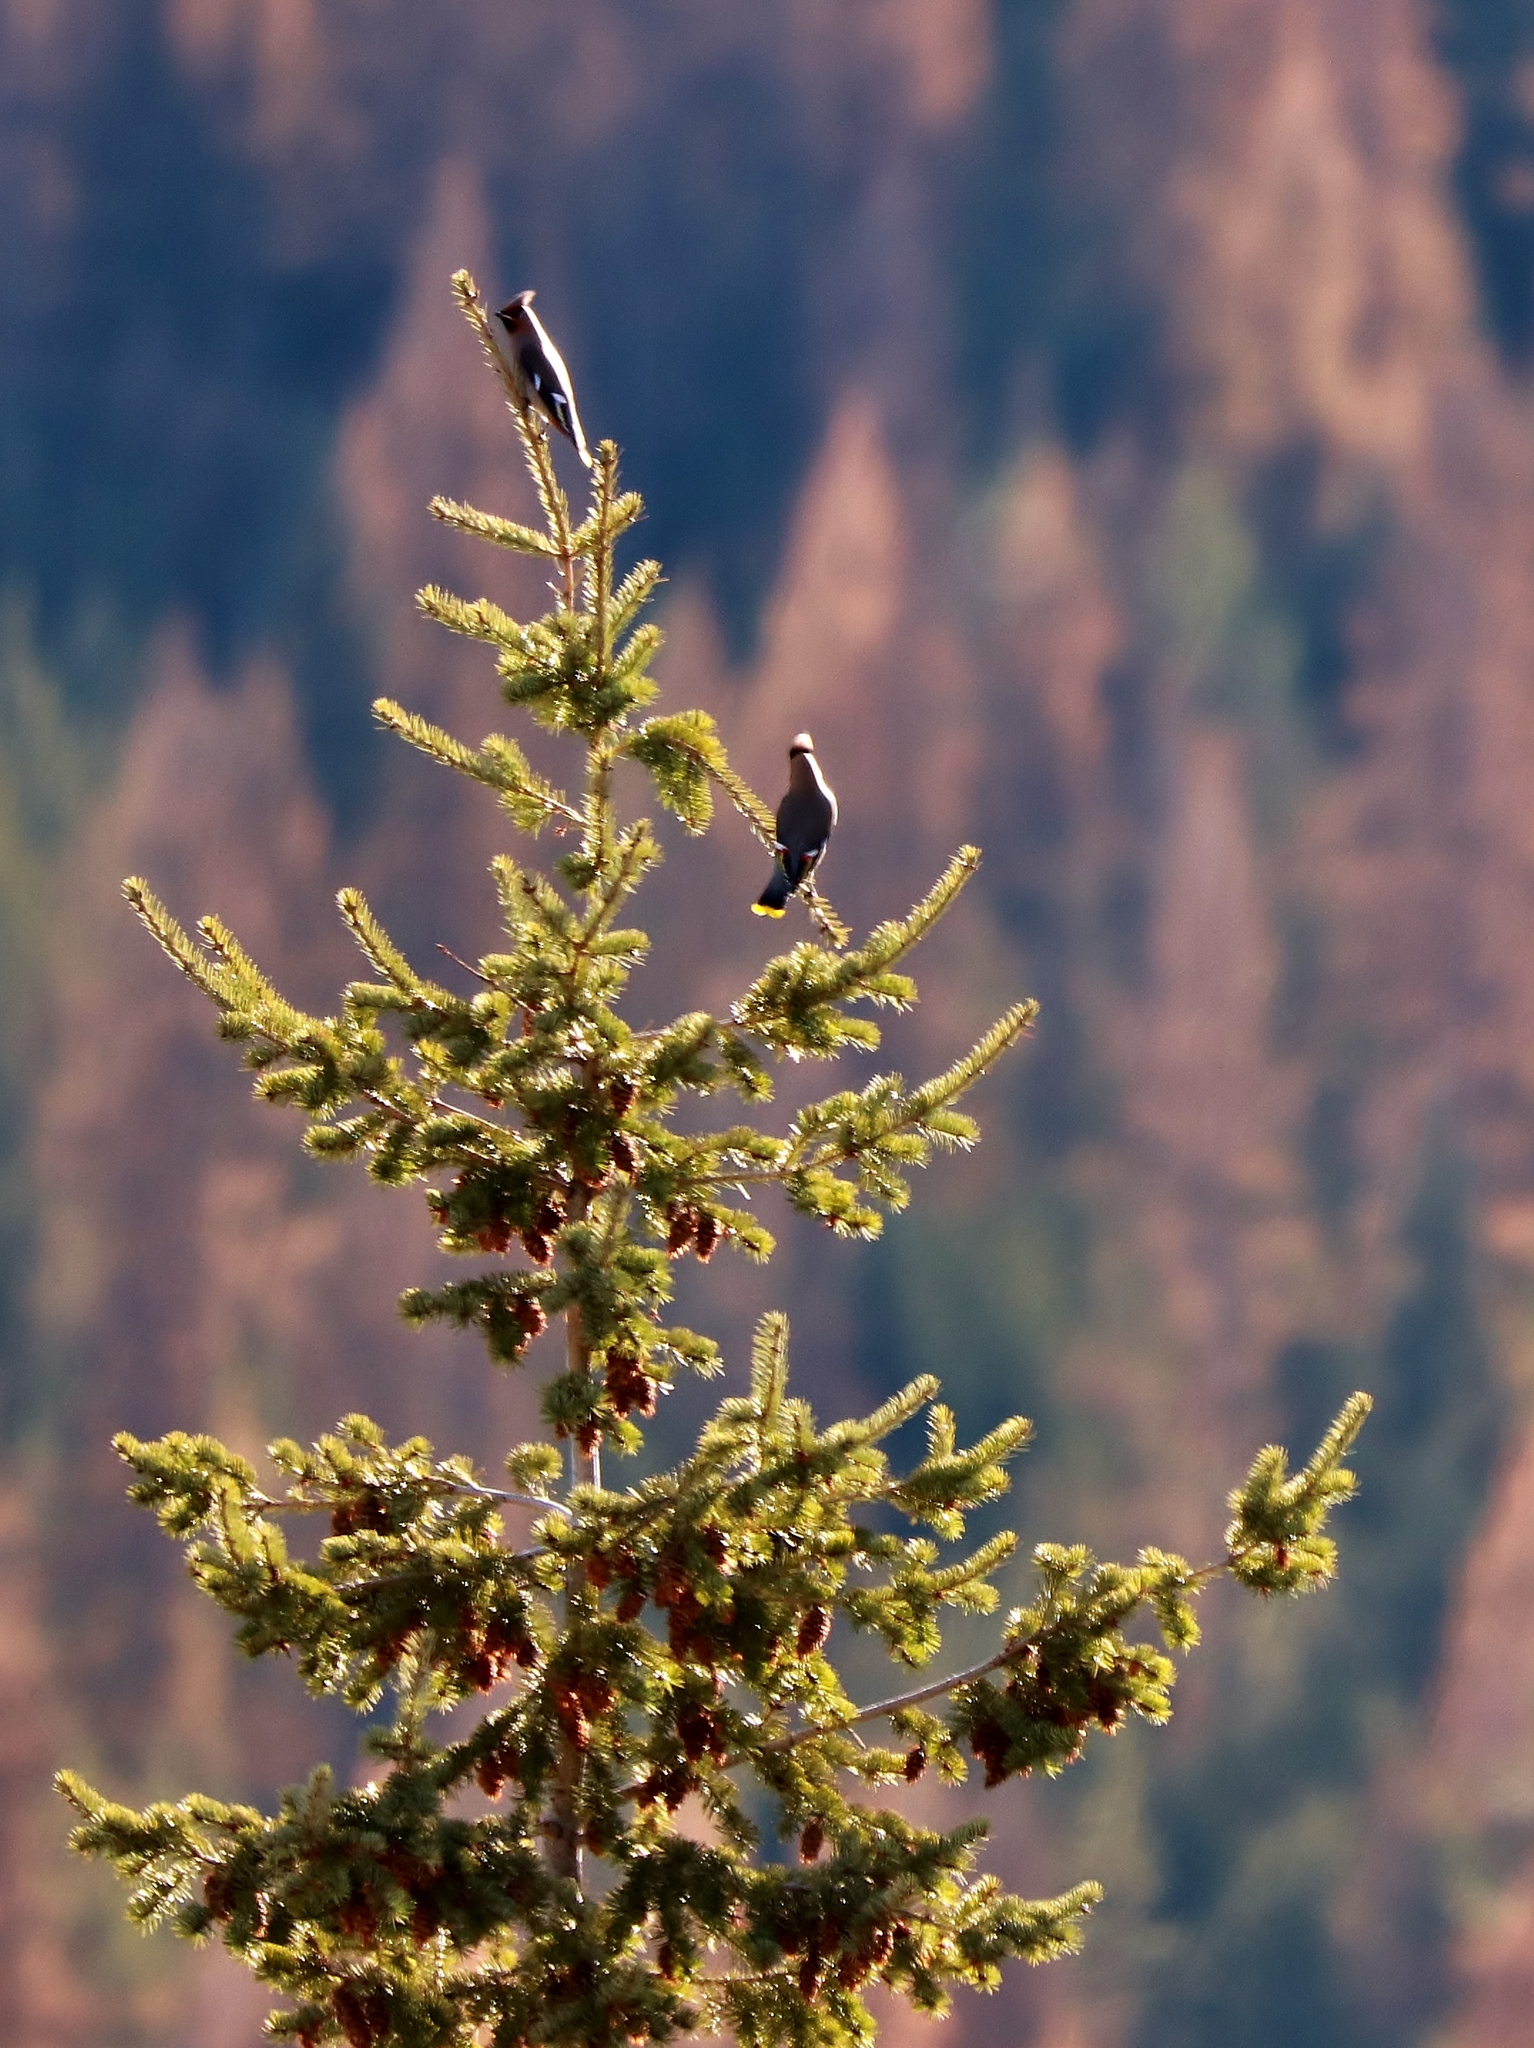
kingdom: Animalia
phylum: Chordata
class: Aves
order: Passeriformes
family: Bombycillidae
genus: Bombycilla
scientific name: Bombycilla garrulus
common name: Bohemian waxwing
